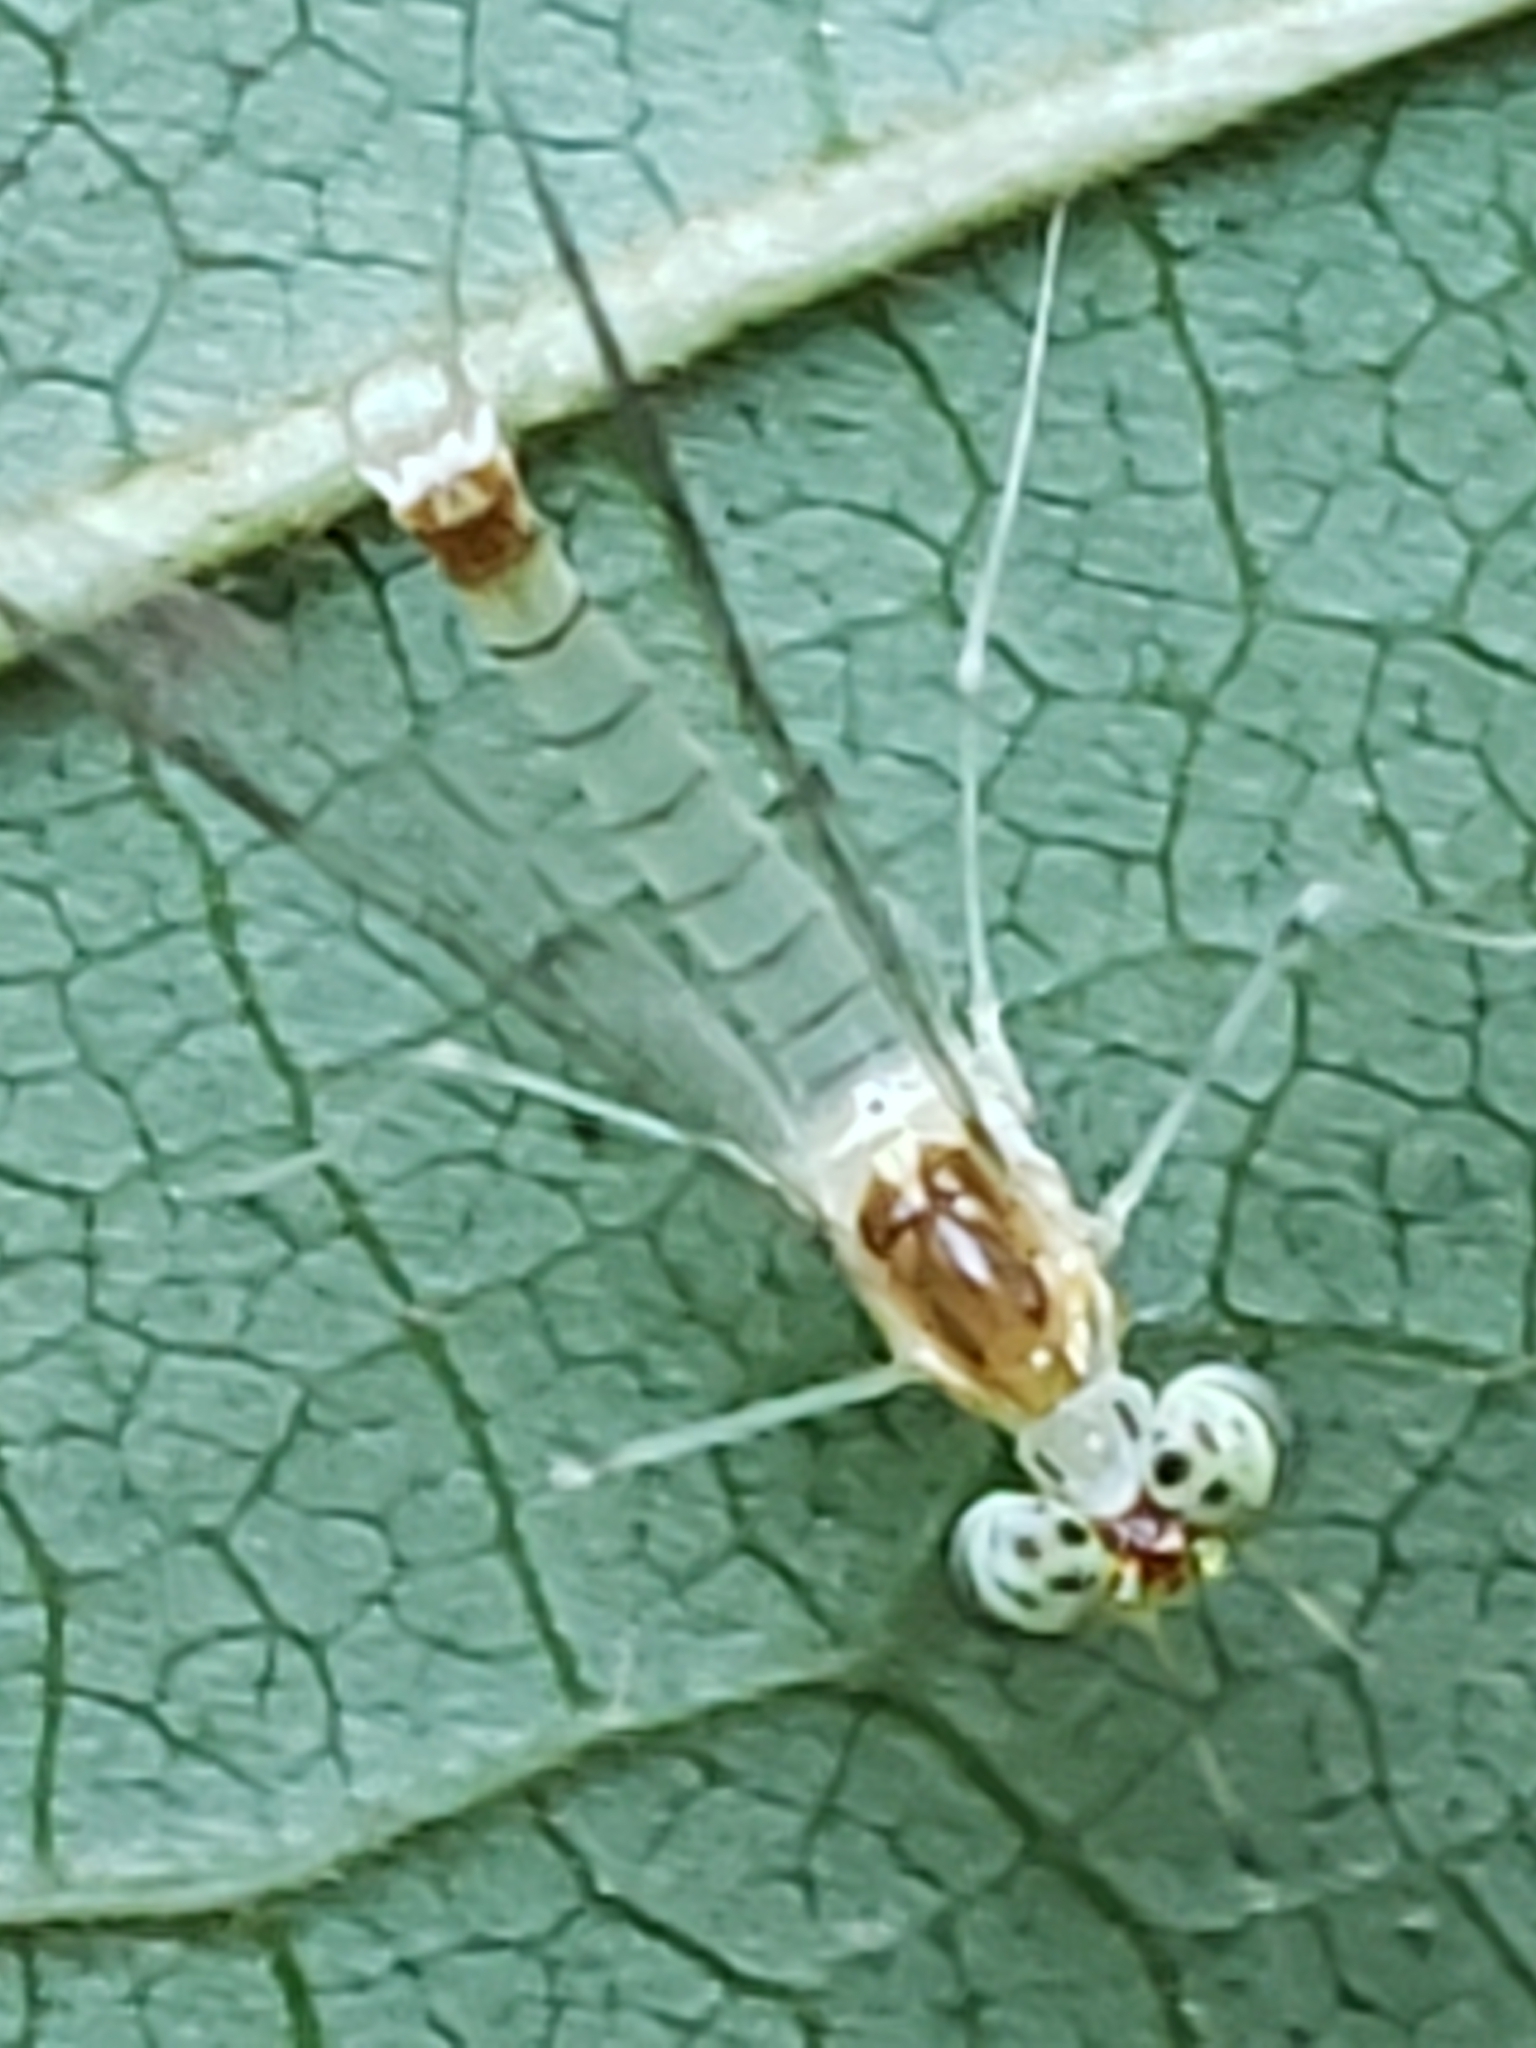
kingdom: Animalia
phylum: Arthropoda
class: Insecta
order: Ephemeroptera
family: Heptageniidae
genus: Stenacron
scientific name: Stenacron interpunctatum
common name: Orange cahill
